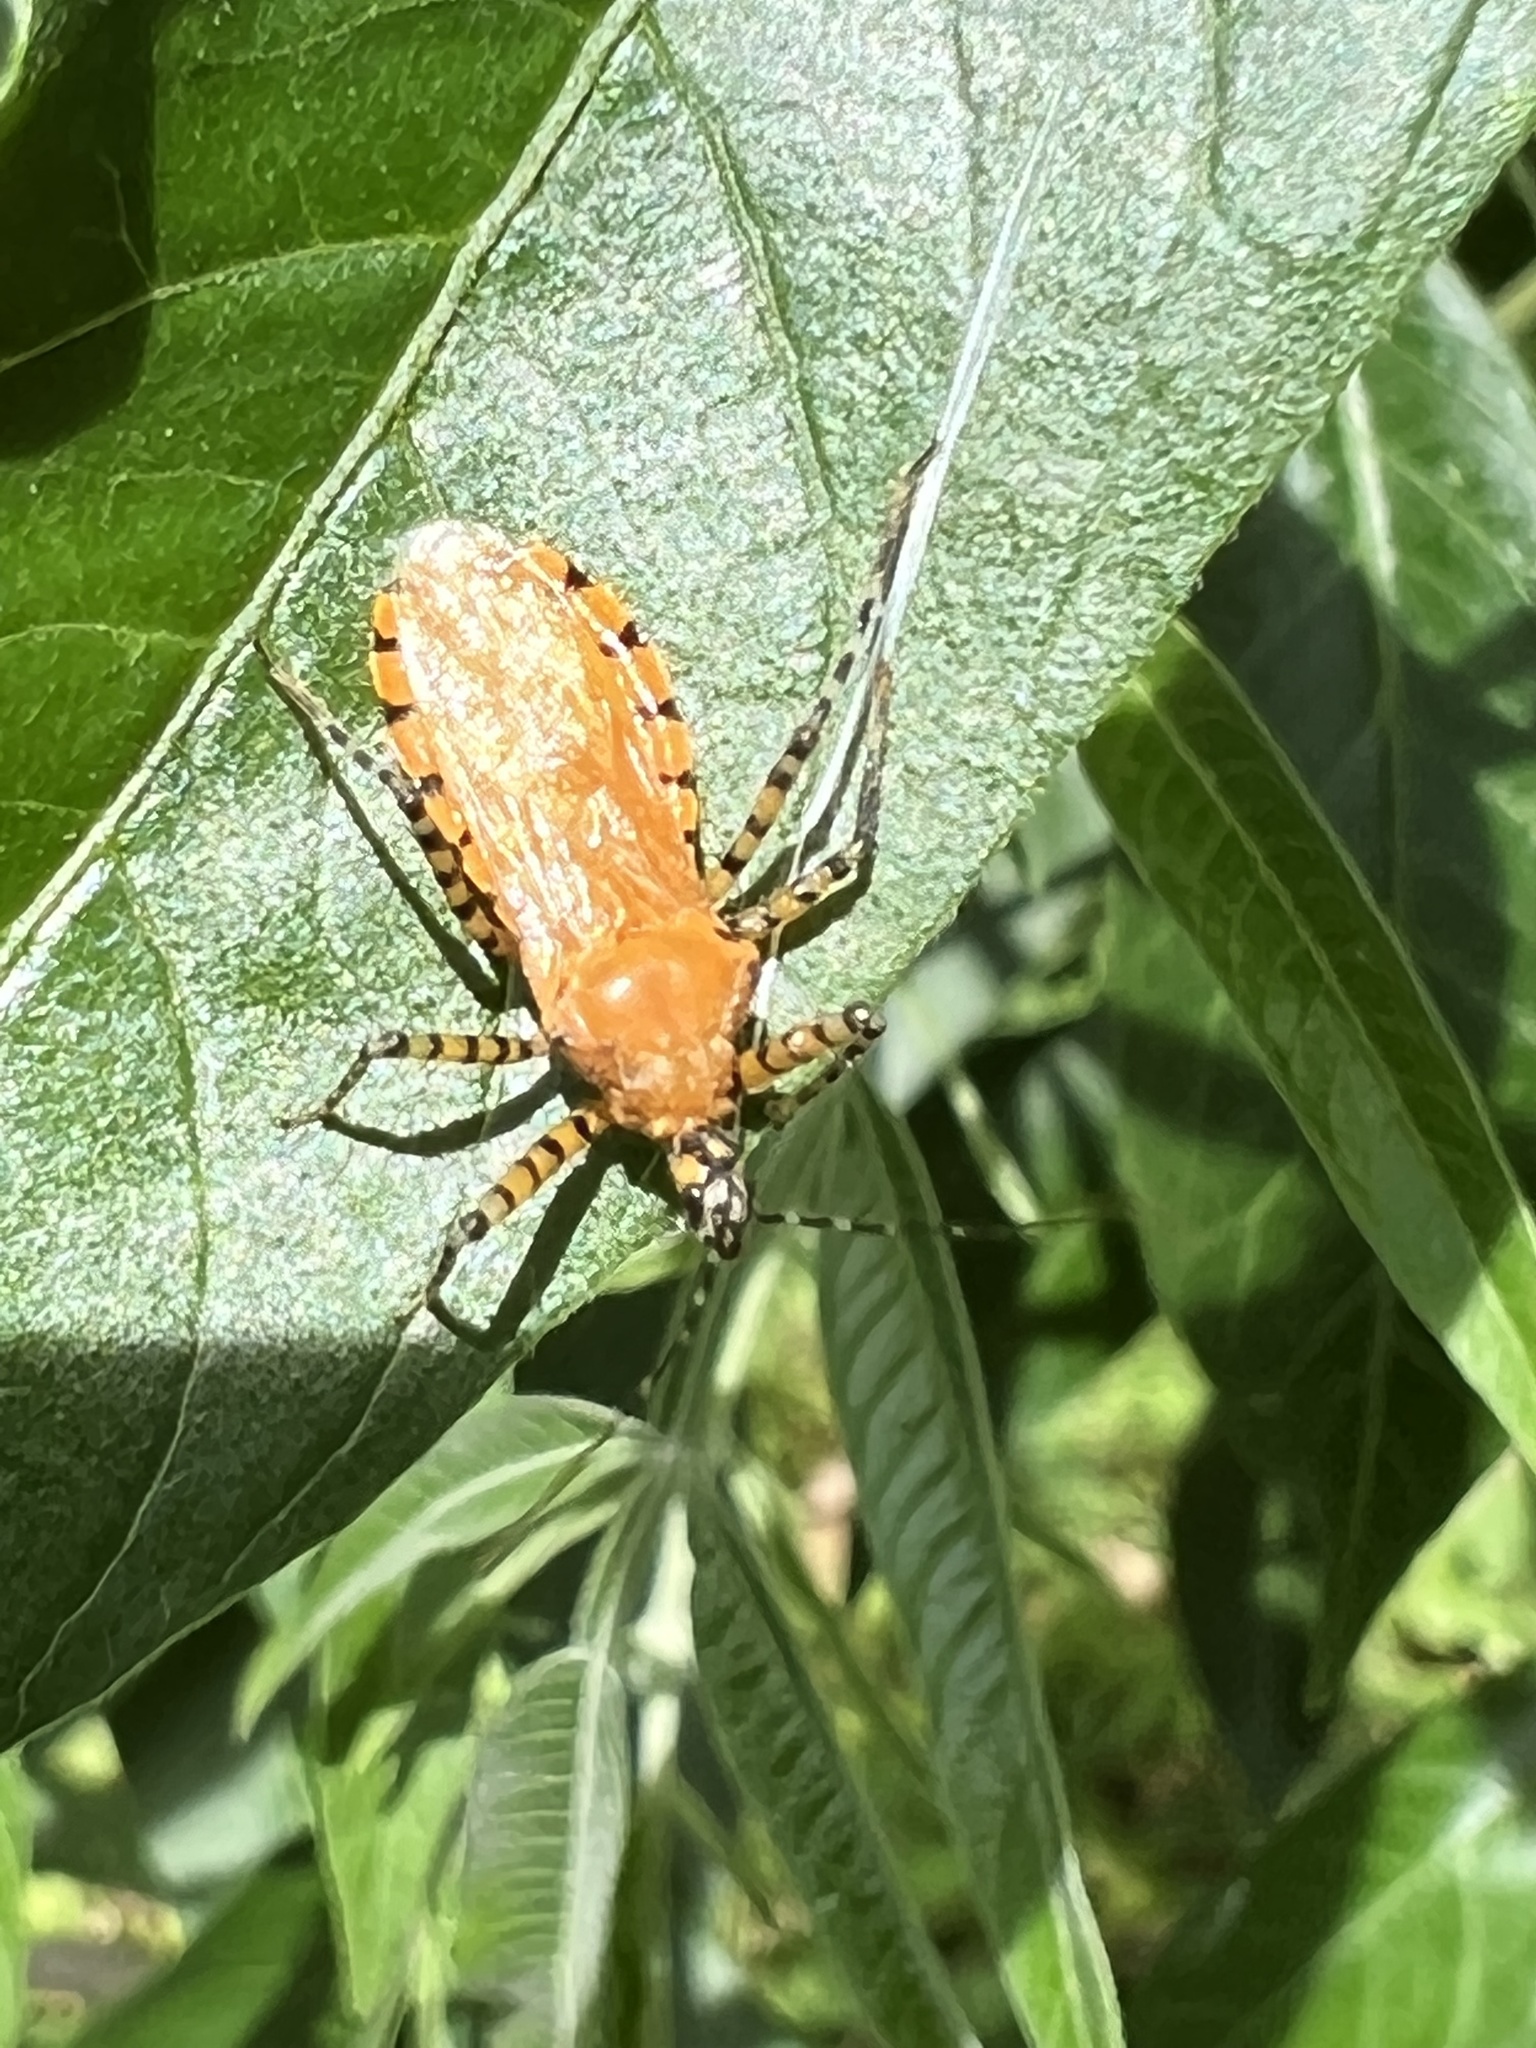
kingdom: Animalia
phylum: Arthropoda
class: Insecta
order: Hemiptera
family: Reduviidae
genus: Pselliopus
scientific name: Pselliopus barberi
